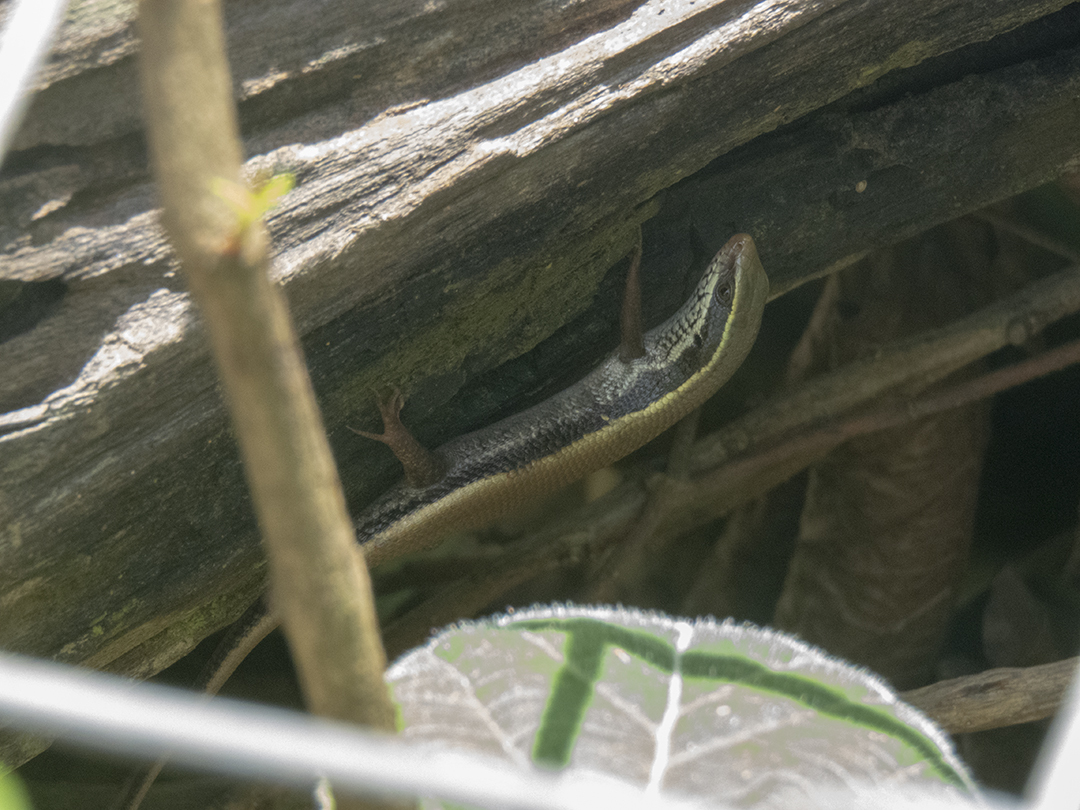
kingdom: Animalia
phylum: Chordata
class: Squamata
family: Scincidae
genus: Eutropis
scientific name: Eutropis carinata
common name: Keeled indian mabuya
